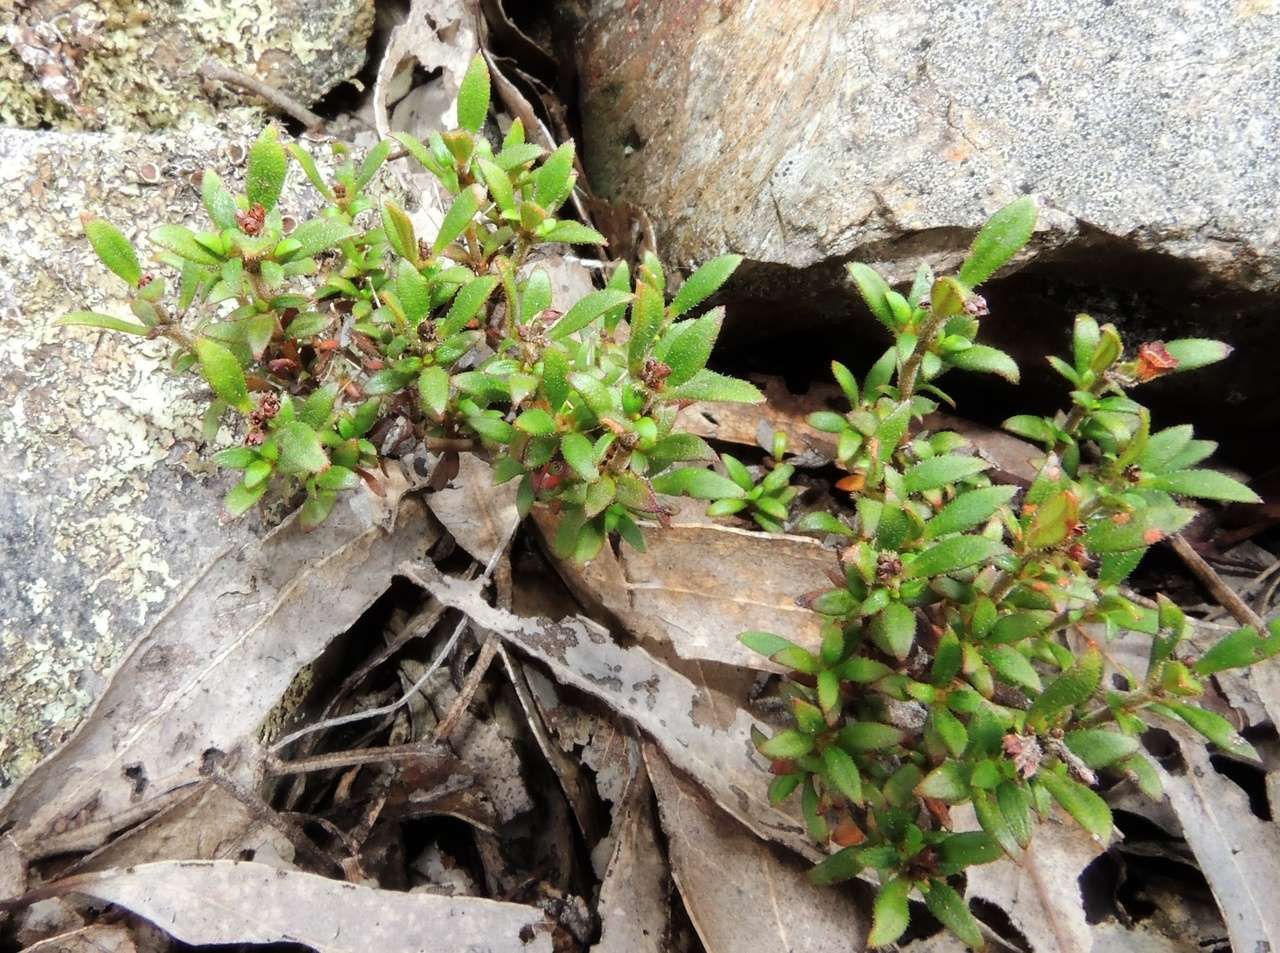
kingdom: Plantae
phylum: Tracheophyta
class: Magnoliopsida
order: Gentianales
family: Rubiaceae
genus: Pomax
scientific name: Pomax umbellata
